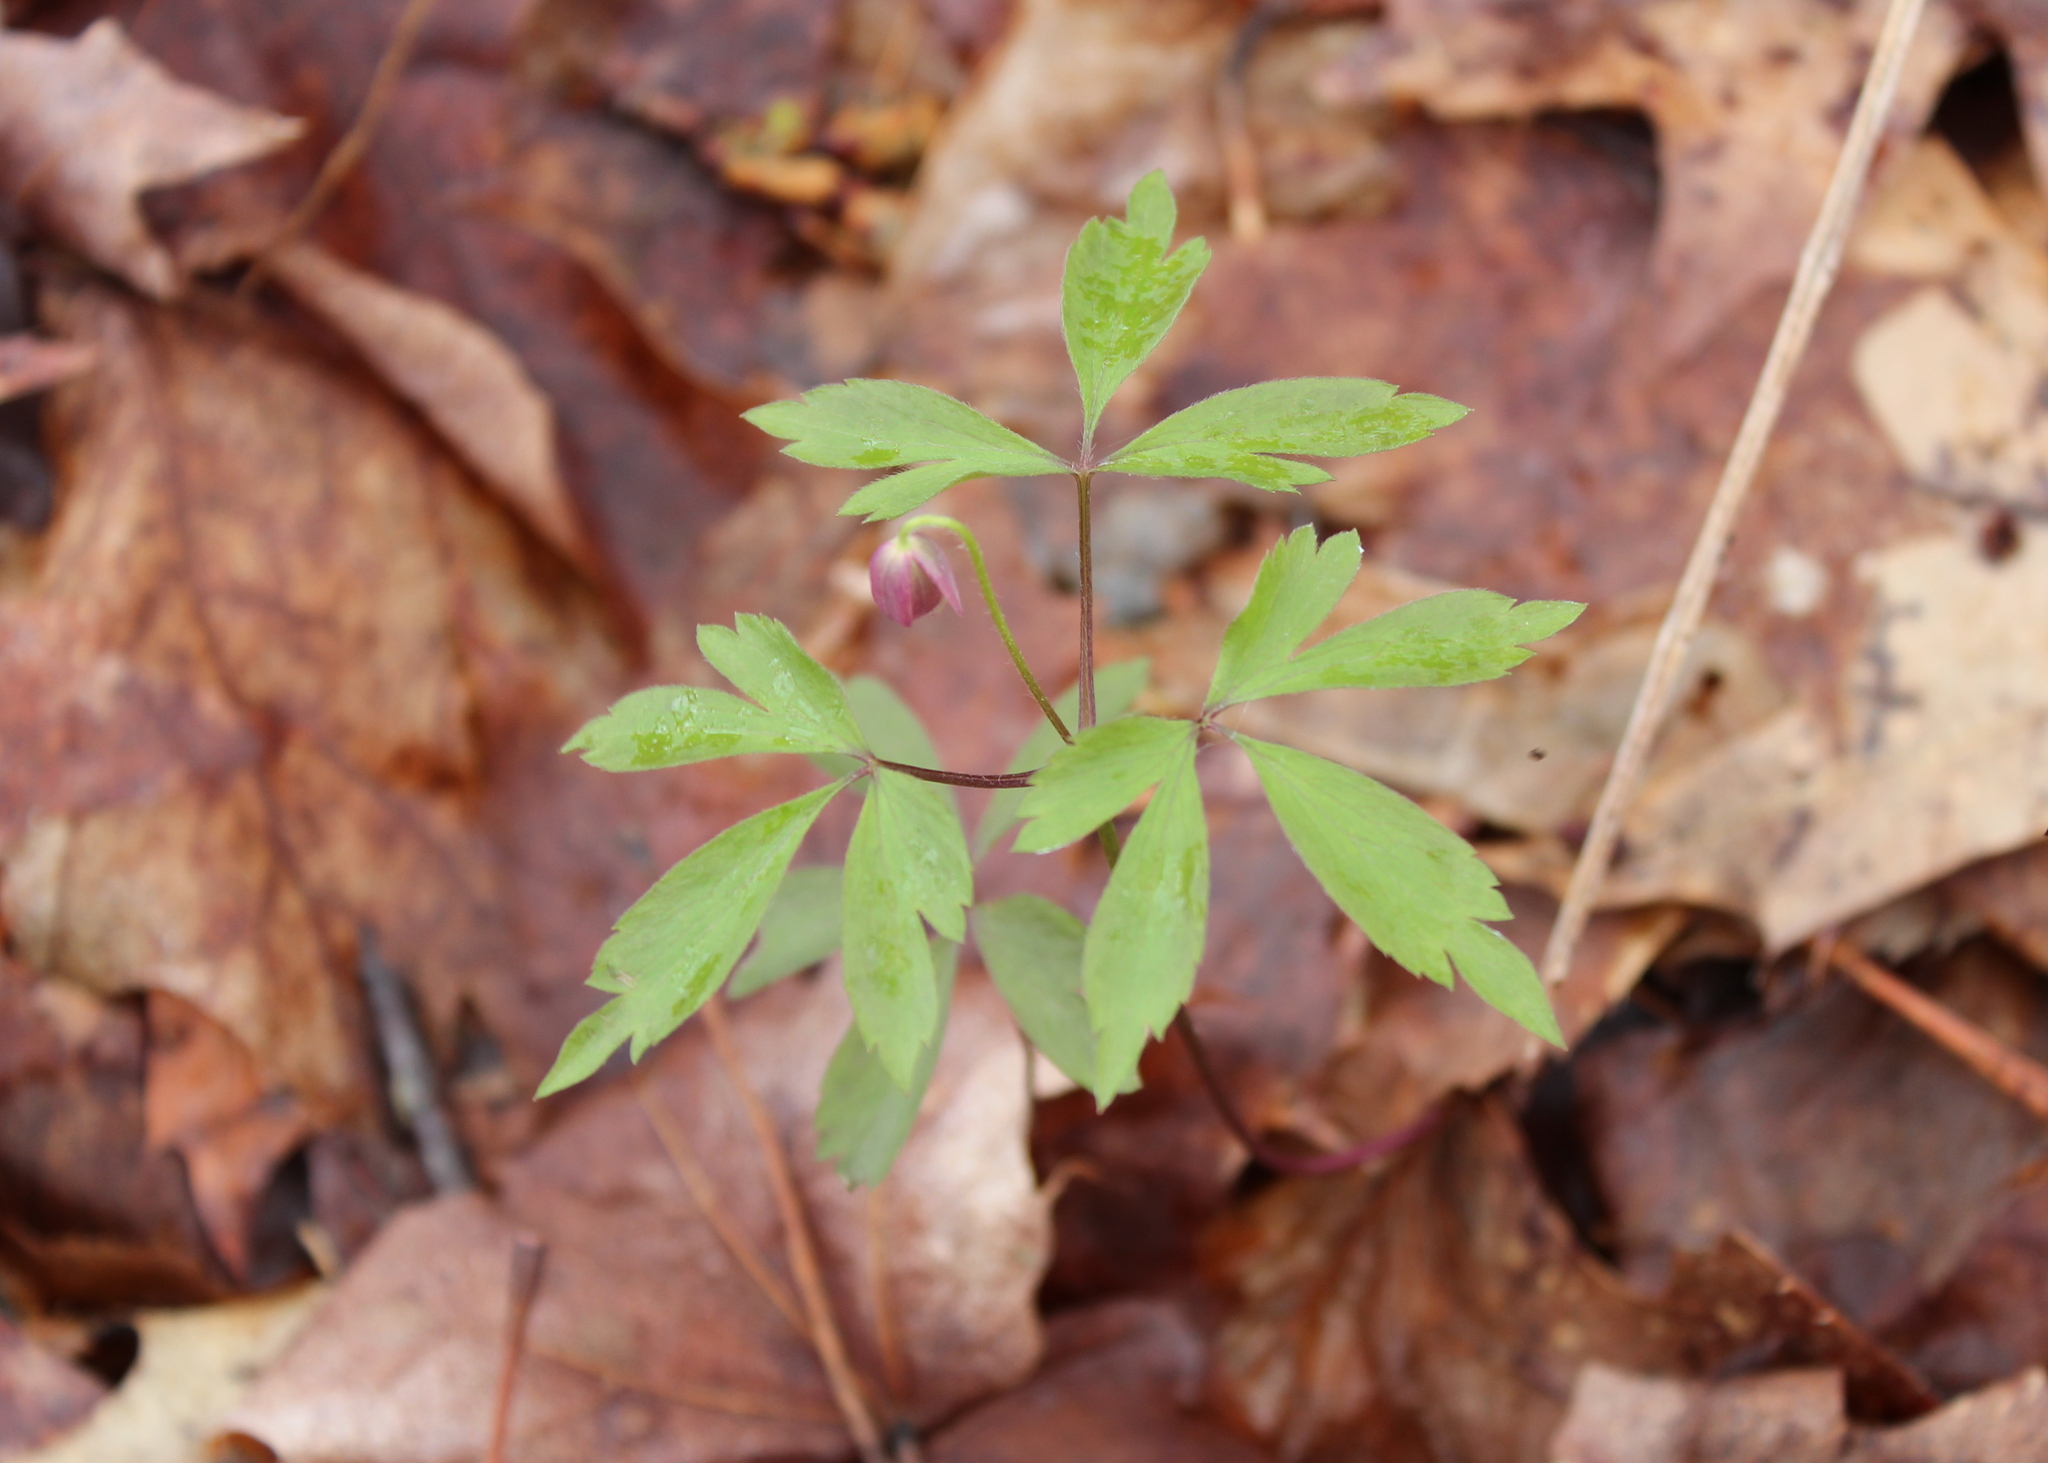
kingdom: Plantae
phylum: Tracheophyta
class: Magnoliopsida
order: Ranunculales
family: Ranunculaceae
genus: Anemone
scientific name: Anemone quinquefolia
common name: Wood anemone
